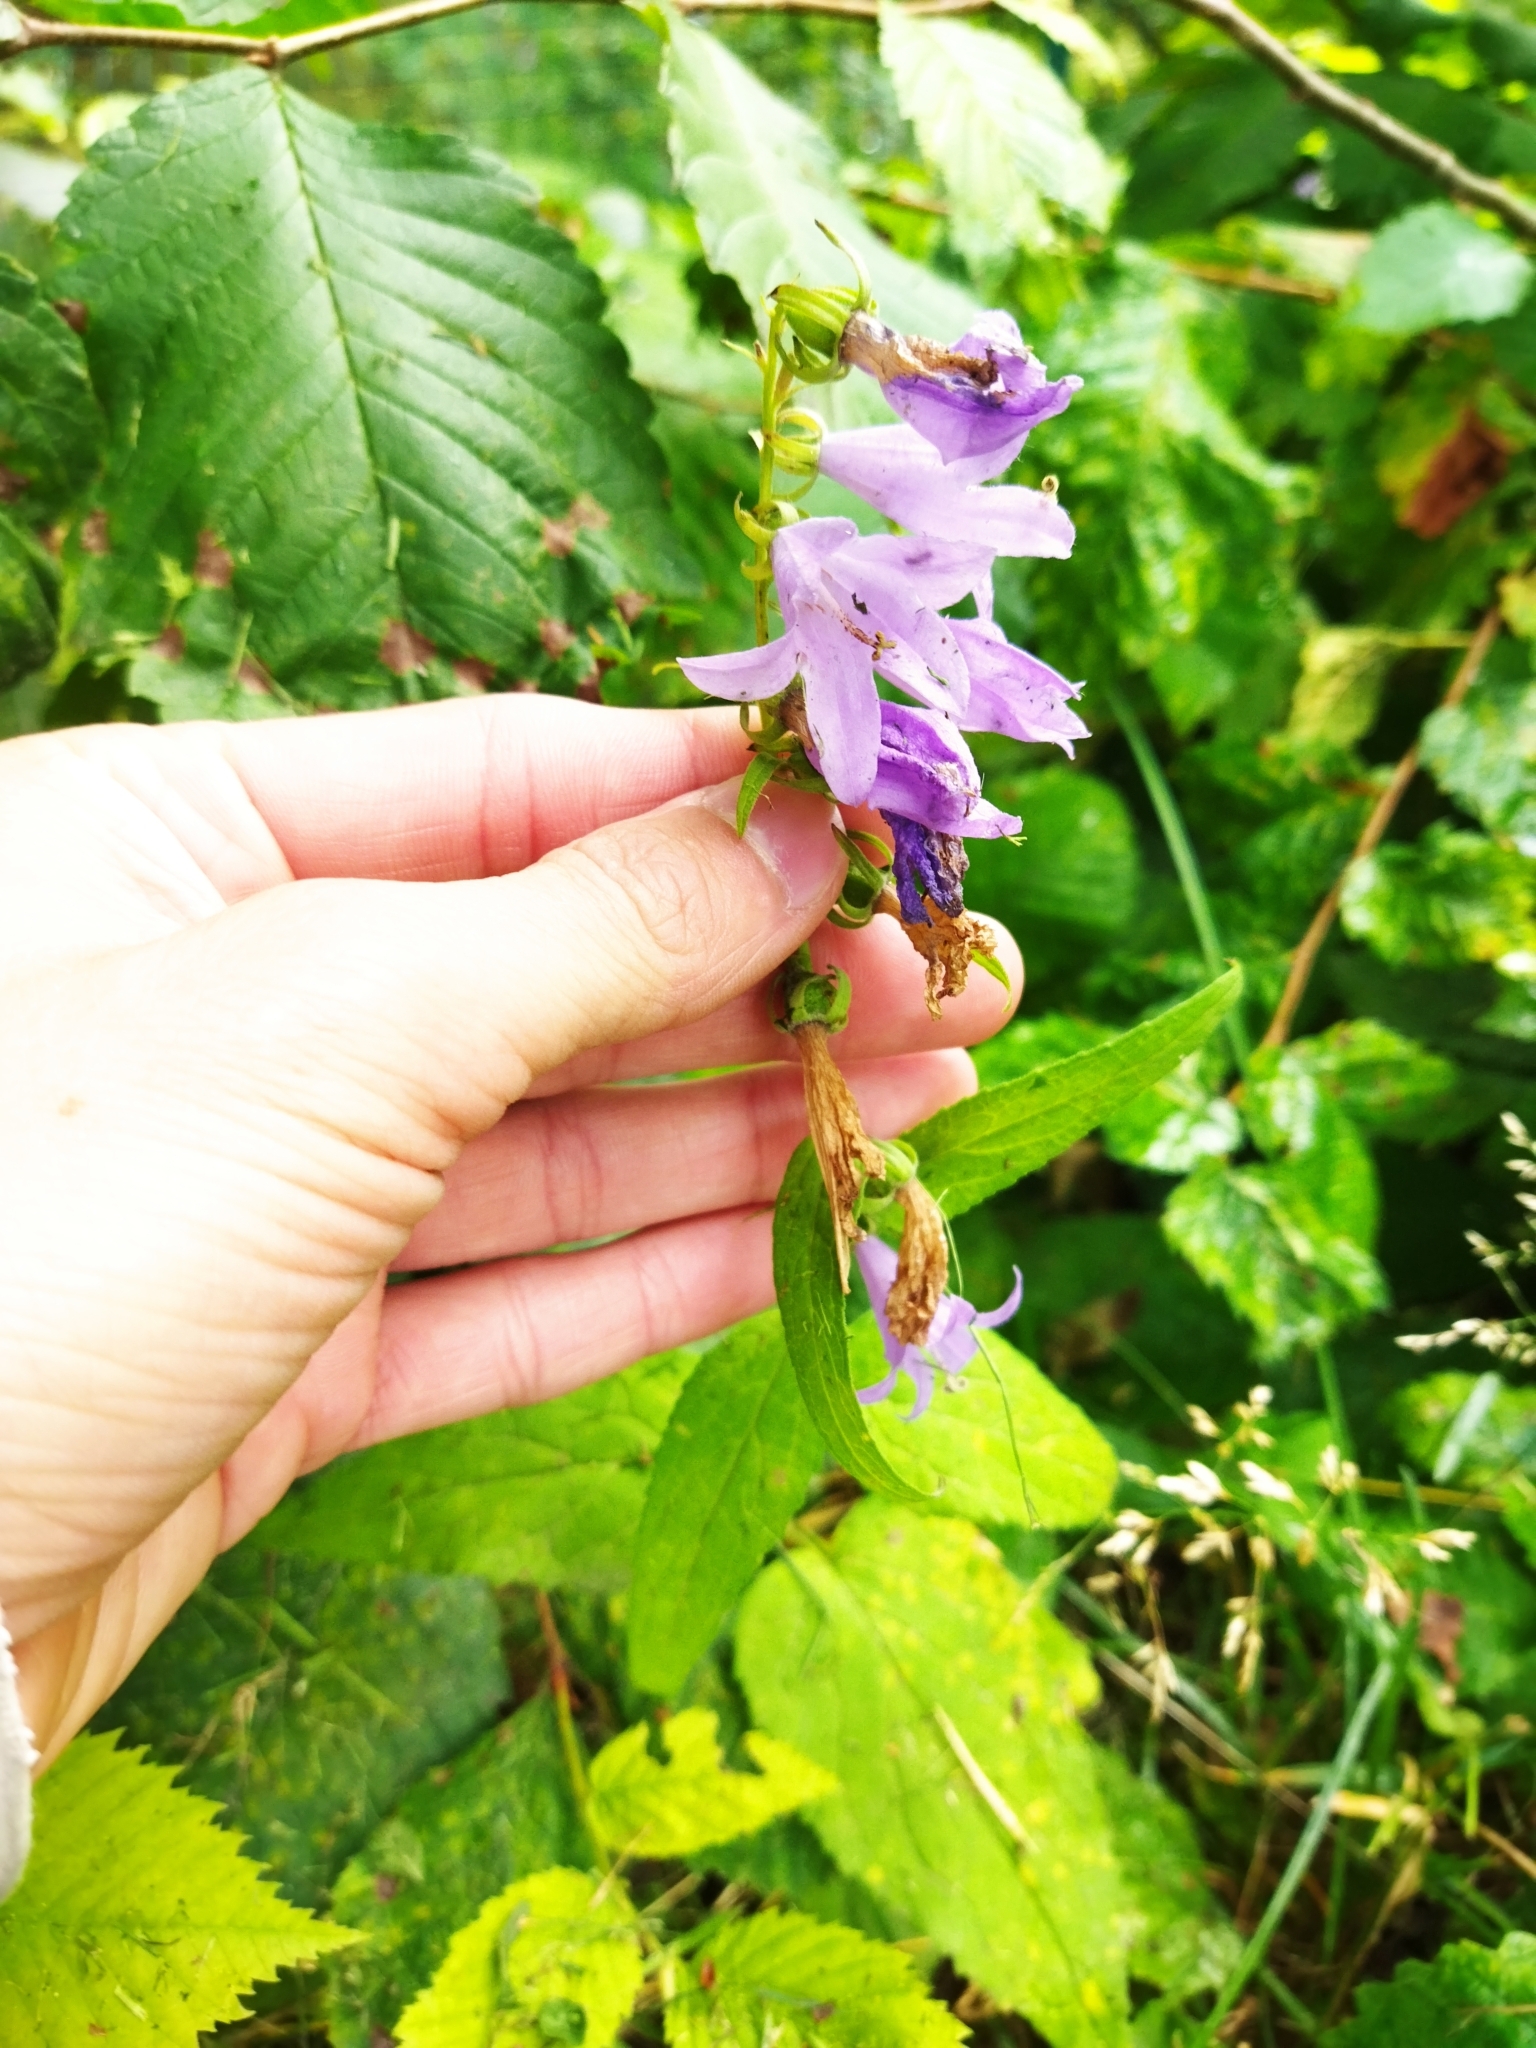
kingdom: Plantae
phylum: Tracheophyta
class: Magnoliopsida
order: Asterales
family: Campanulaceae
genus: Campanula
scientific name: Campanula rapunculoides
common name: Creeping bellflower
